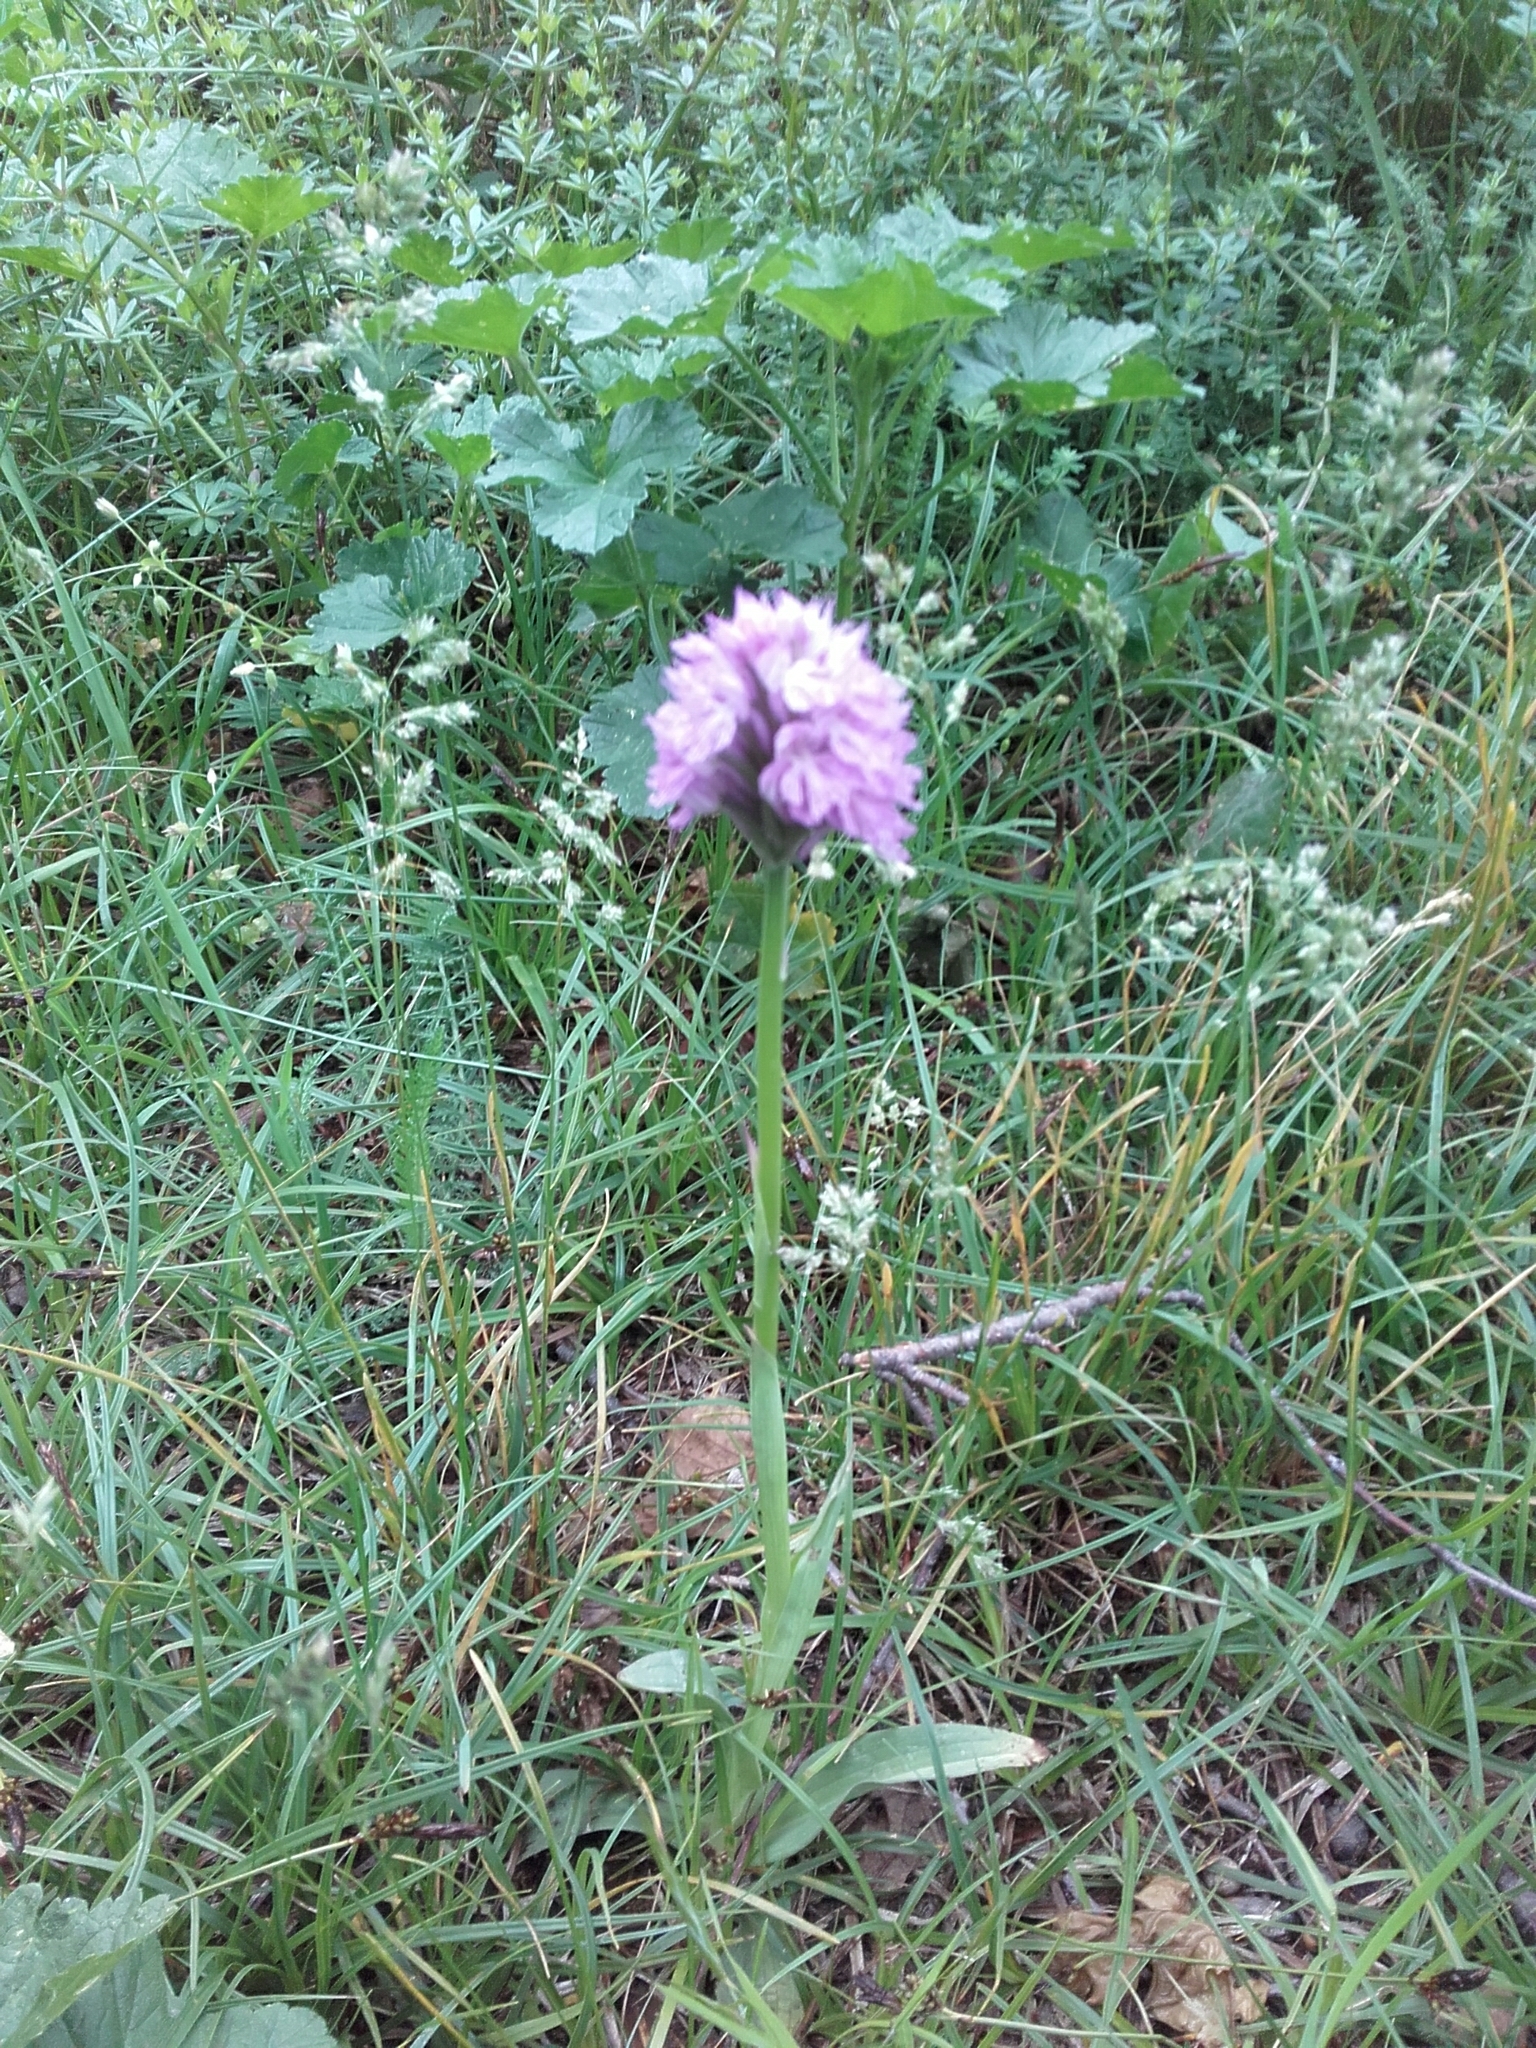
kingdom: Plantae
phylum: Tracheophyta
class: Liliopsida
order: Asparagales
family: Orchidaceae
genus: Neotinea
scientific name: Neotinea tridentata
